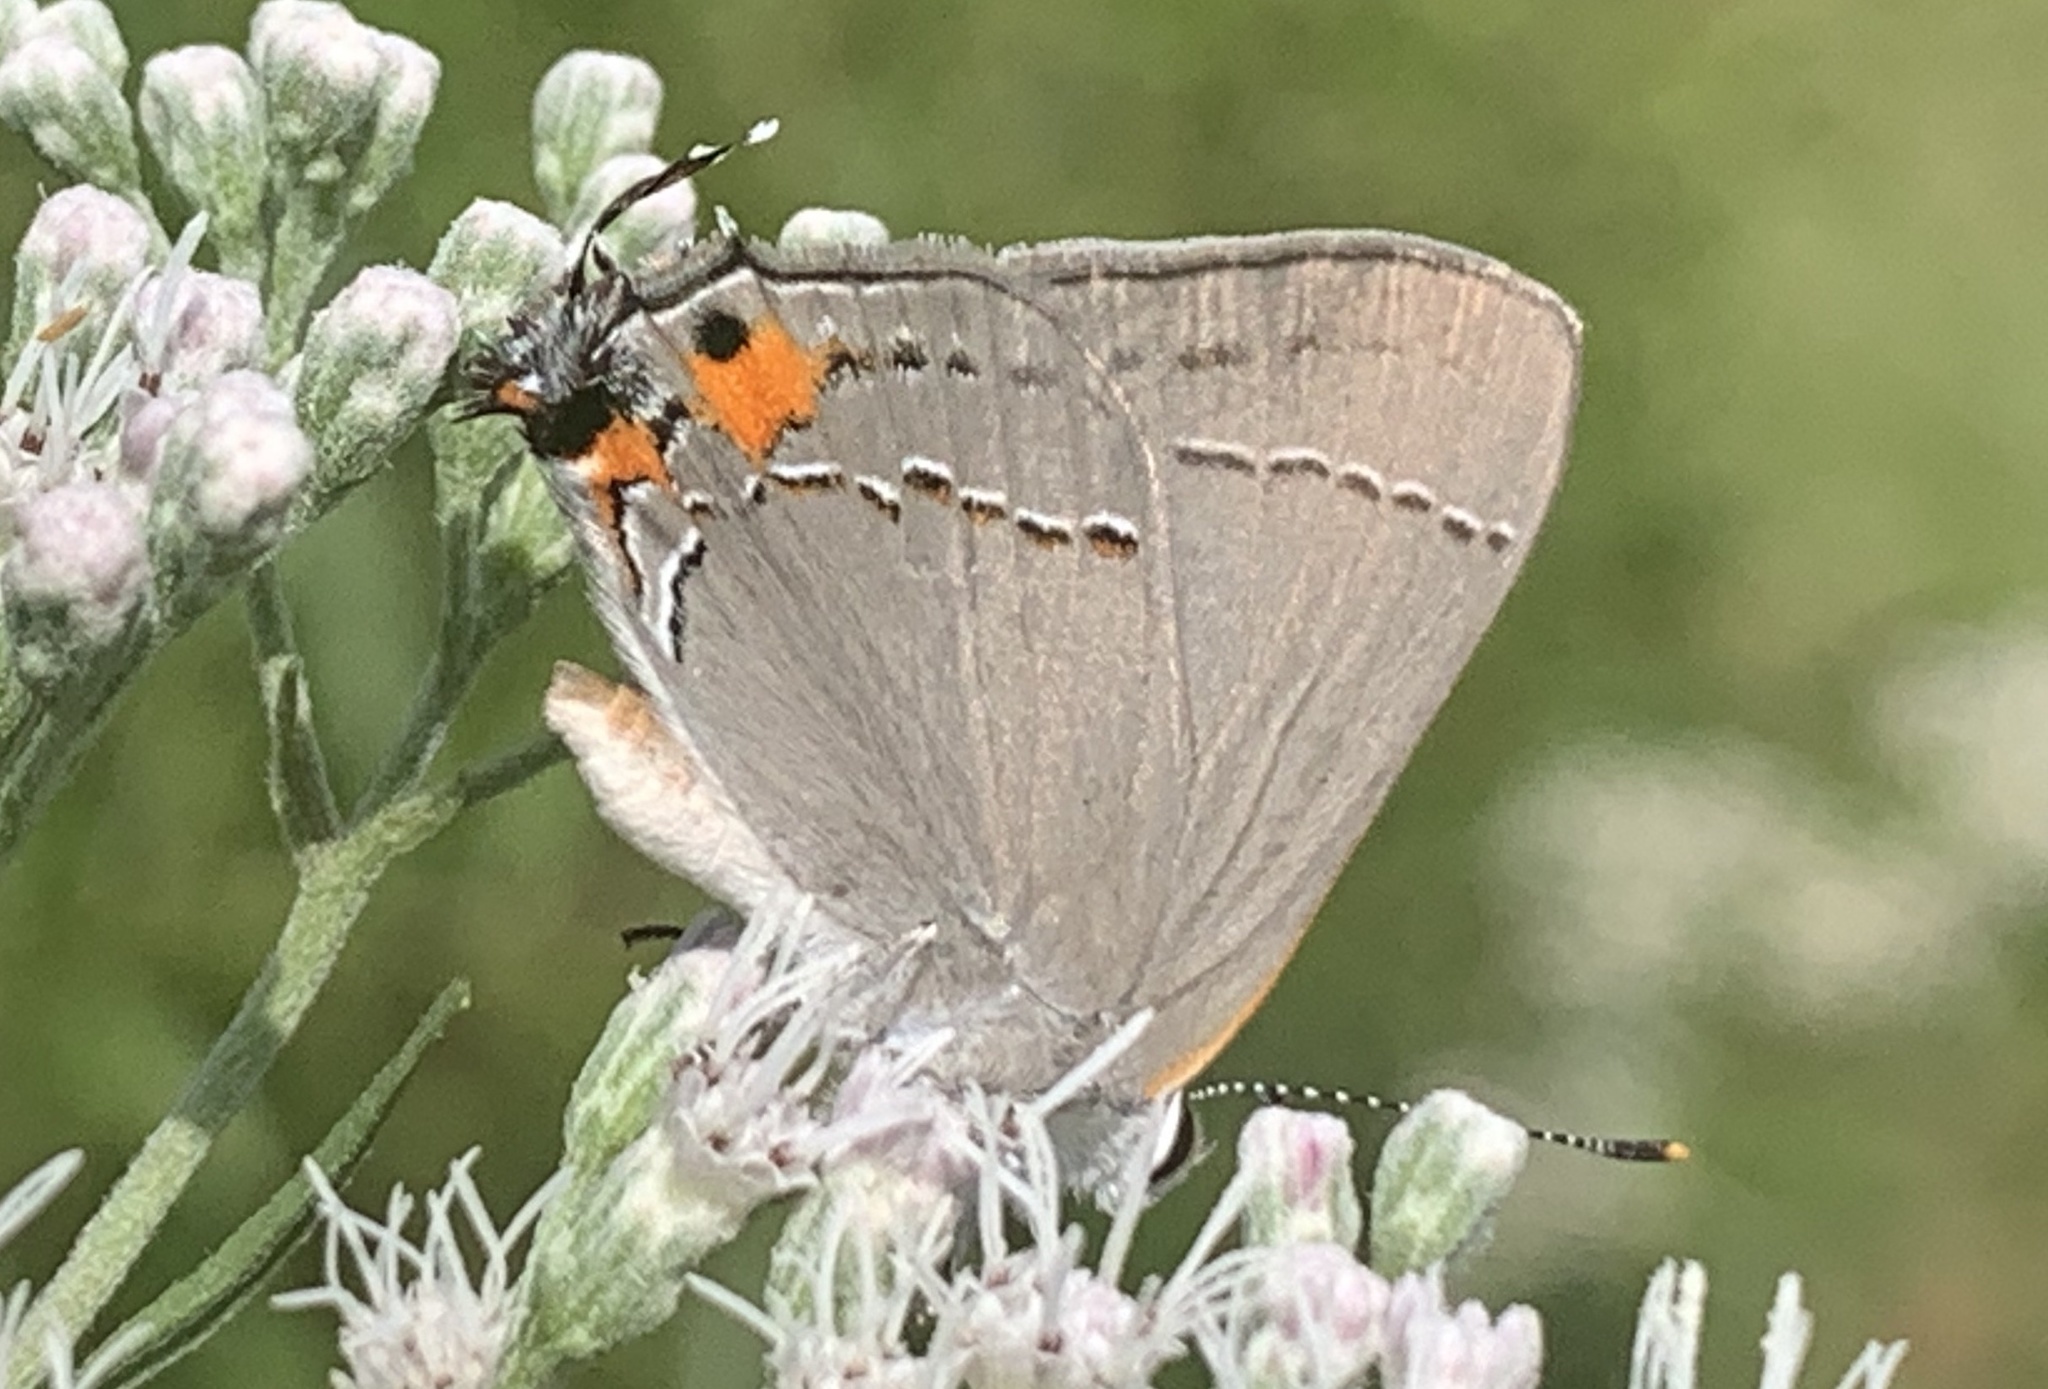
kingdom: Animalia
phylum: Arthropoda
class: Insecta
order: Lepidoptera
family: Lycaenidae
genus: Strymon
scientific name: Strymon melinus
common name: Gray hairstreak
